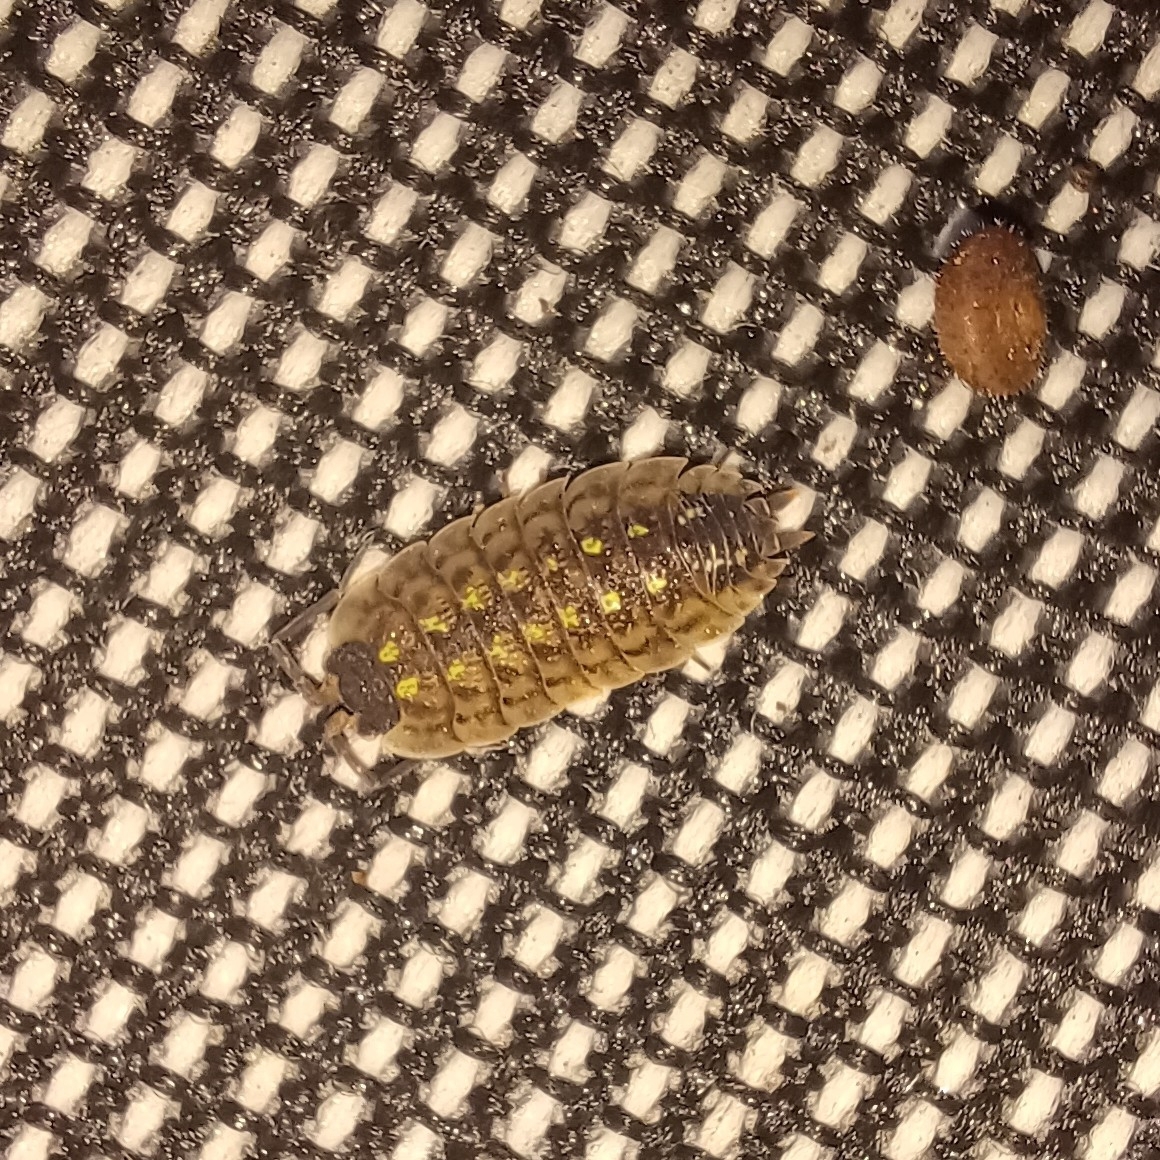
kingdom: Animalia
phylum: Arthropoda
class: Malacostraca
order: Isopoda
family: Porcellionidae
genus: Porcellio
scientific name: Porcellio spinicornis
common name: Painted woodlouse
